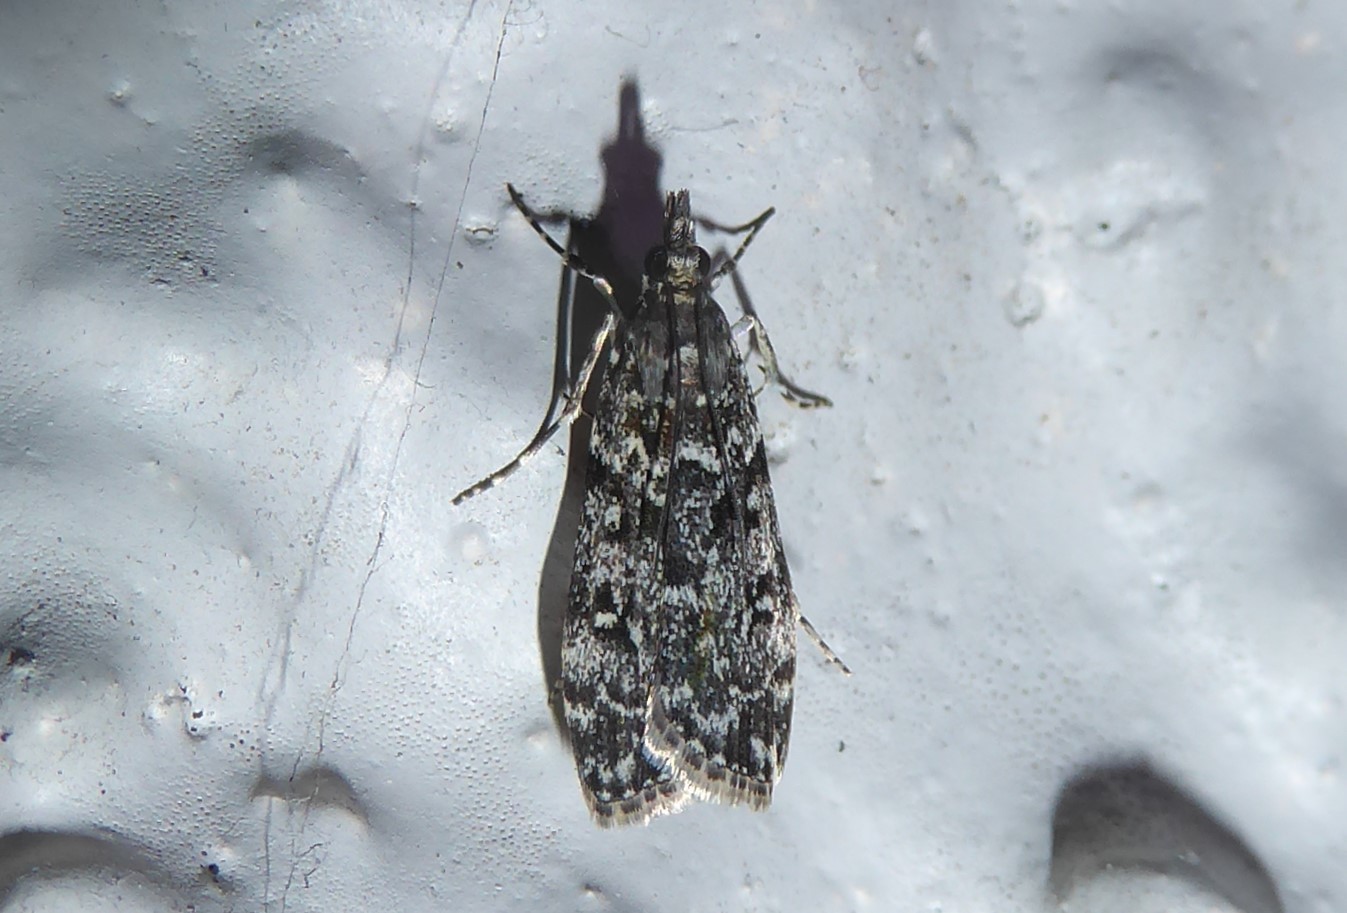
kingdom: Animalia
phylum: Arthropoda
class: Insecta
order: Lepidoptera
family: Crambidae
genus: Eudonia
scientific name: Eudonia philerga
